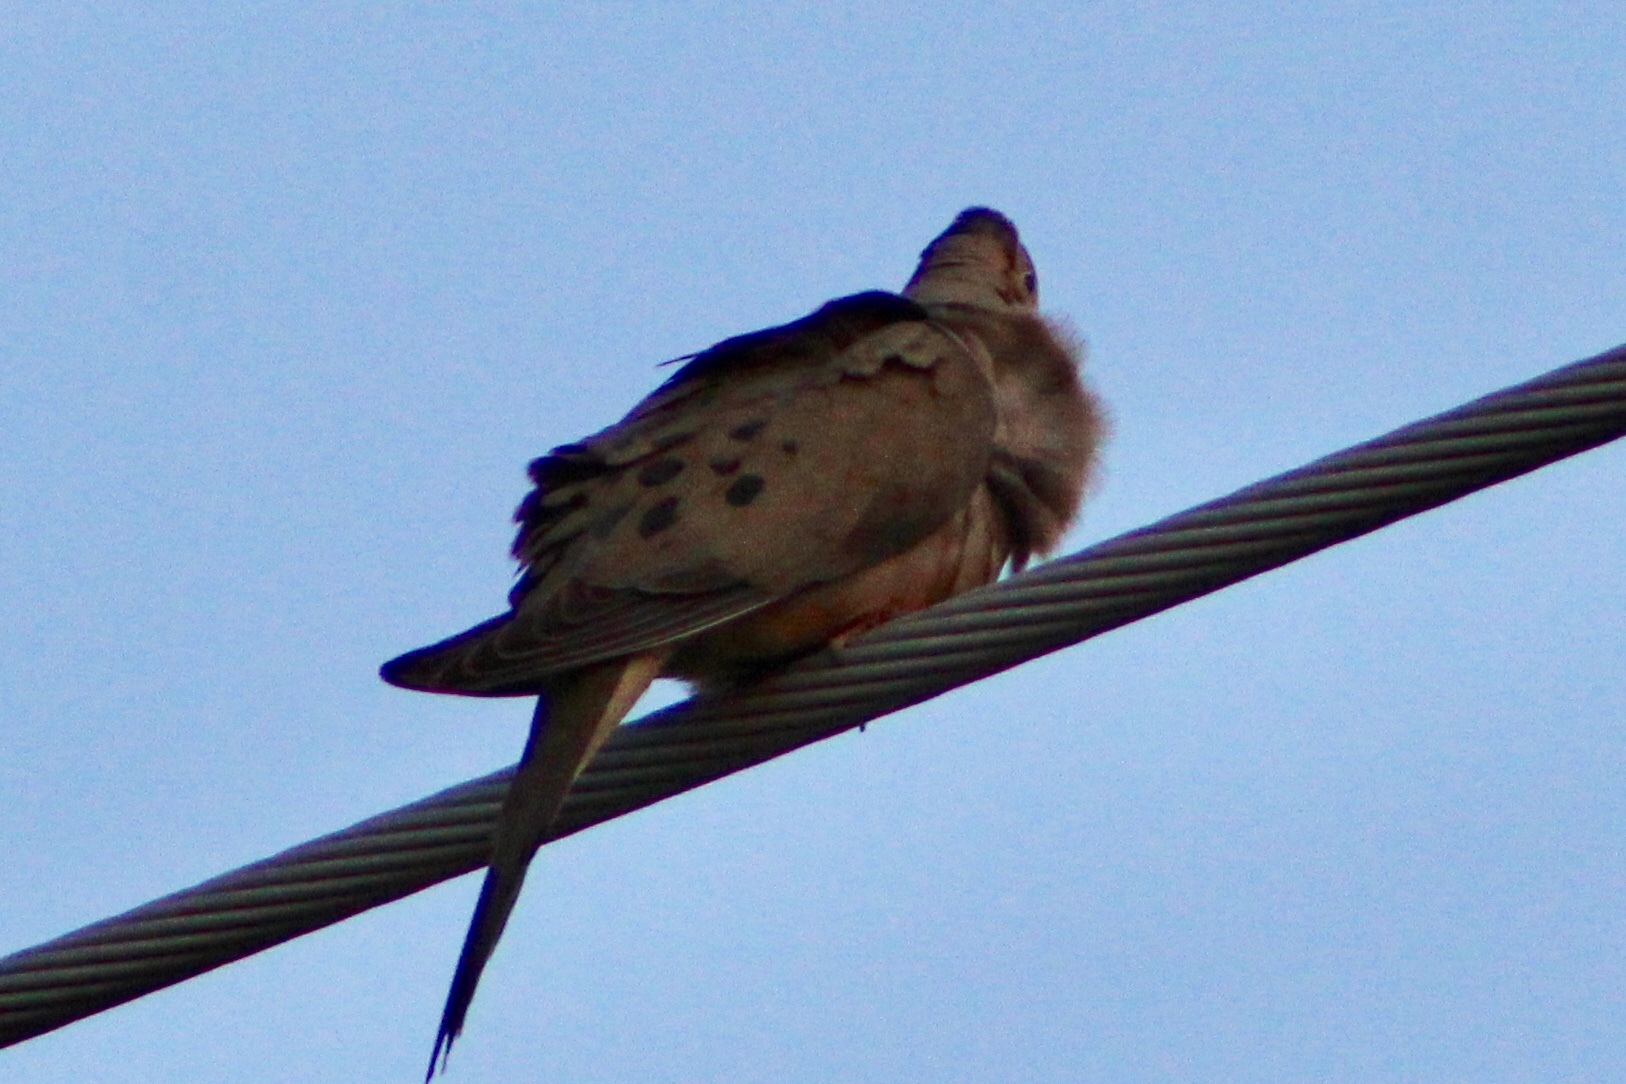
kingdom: Animalia
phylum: Chordata
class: Aves
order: Columbiformes
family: Columbidae
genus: Zenaida
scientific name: Zenaida macroura
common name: Mourning dove
